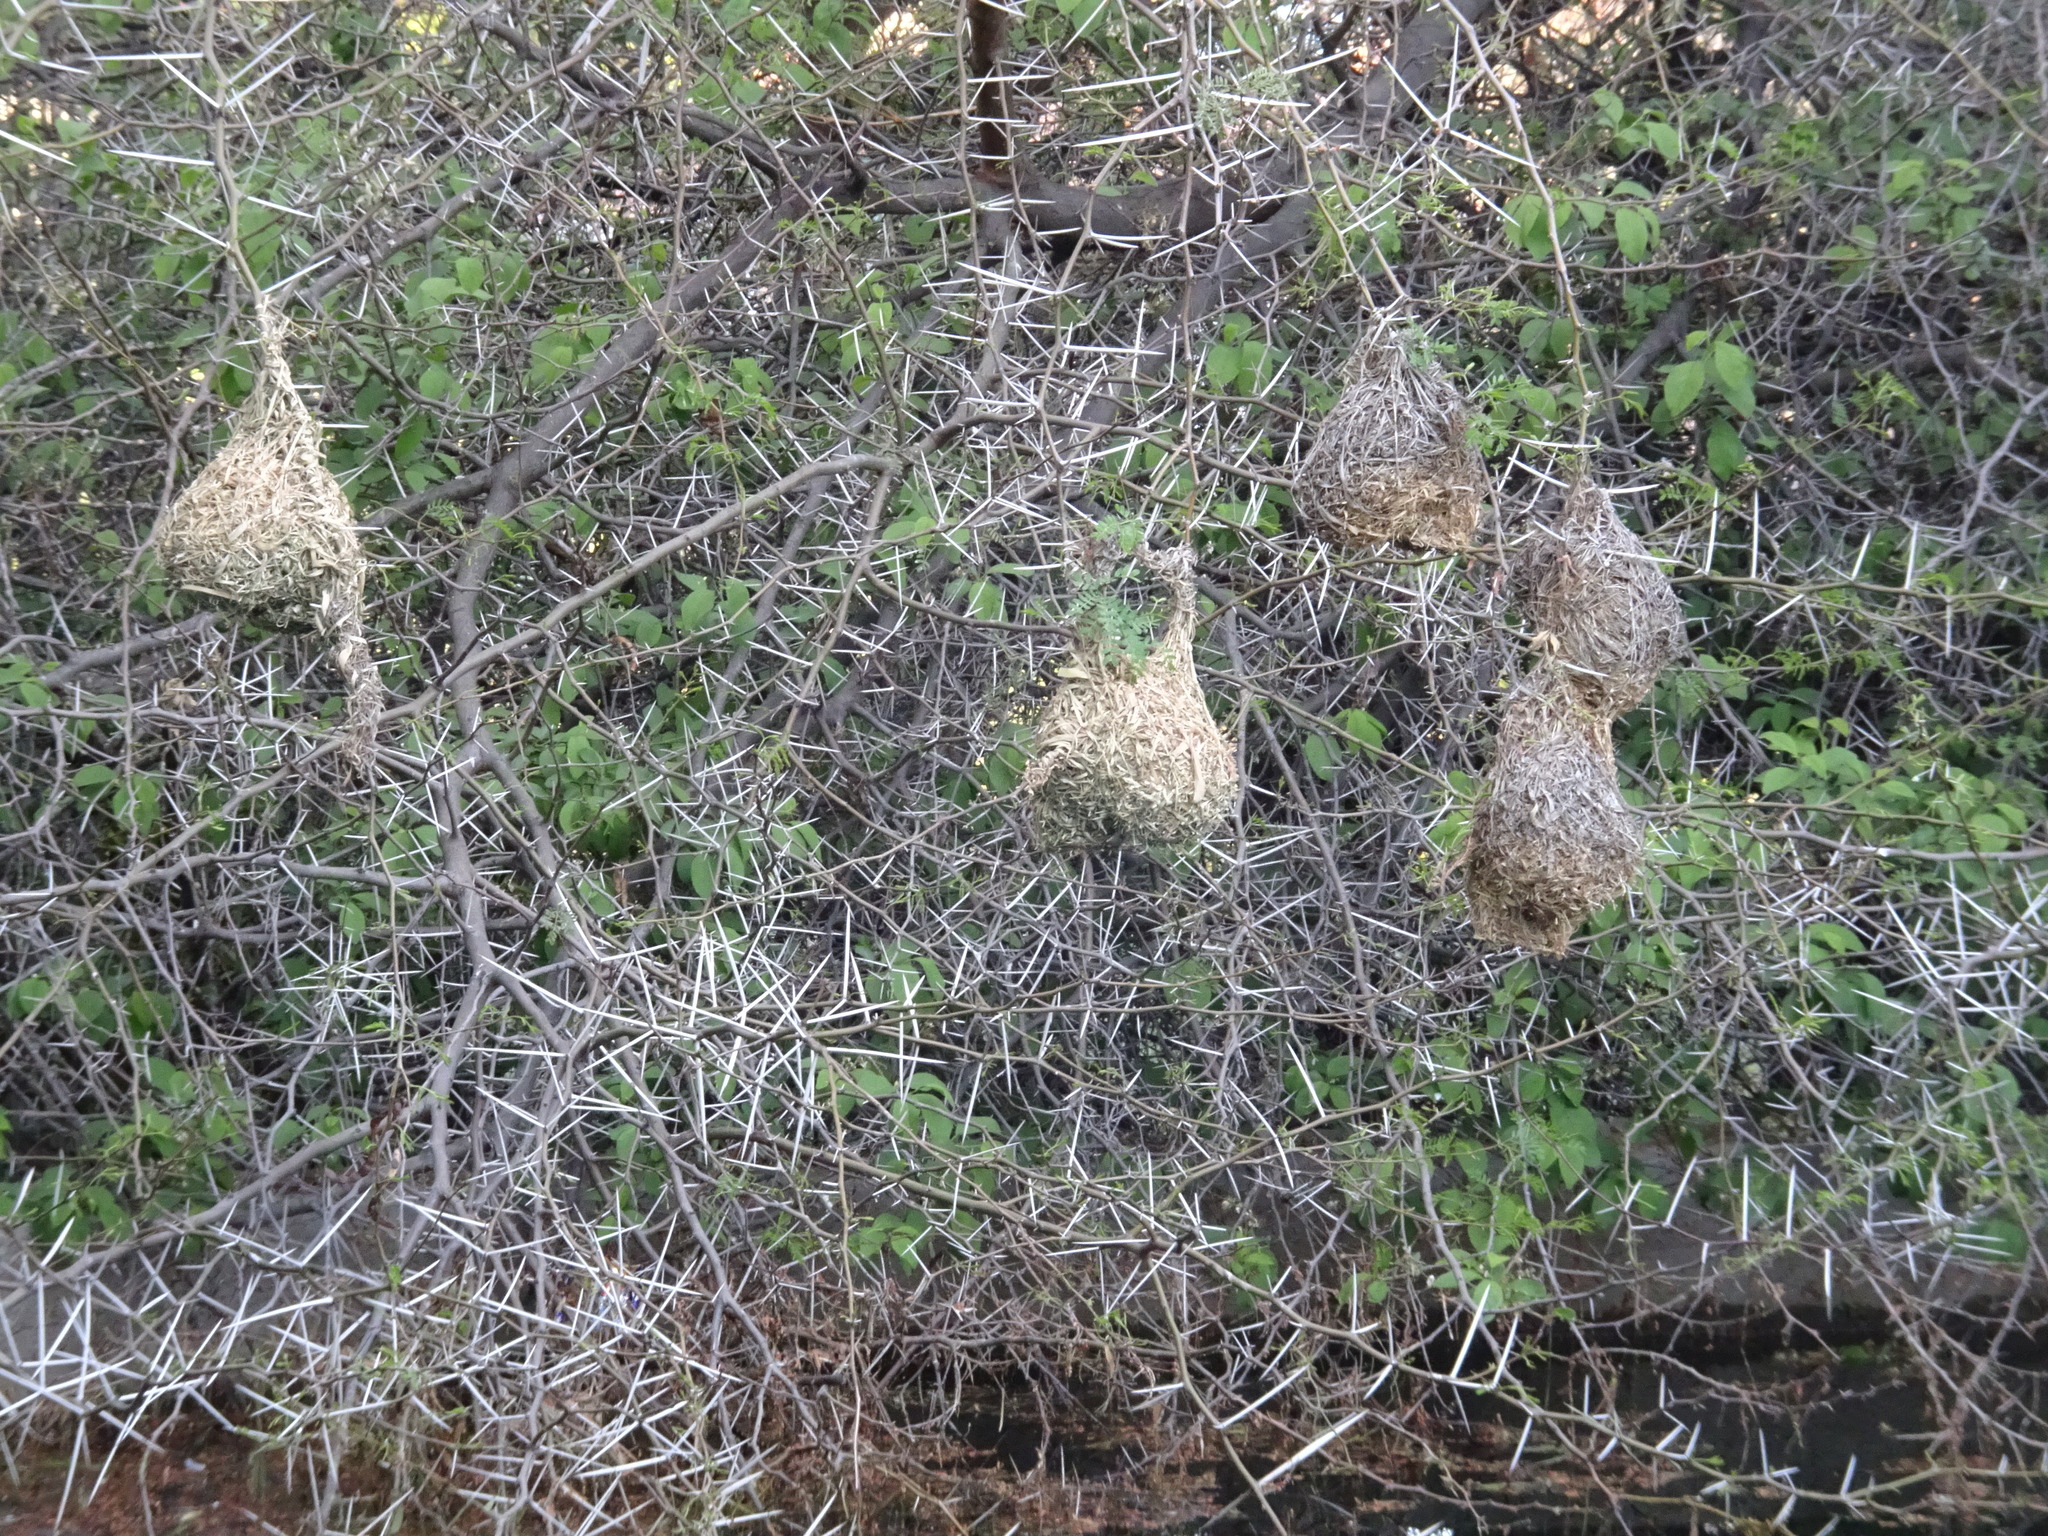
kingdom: Animalia
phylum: Chordata
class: Aves
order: Passeriformes
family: Ploceidae
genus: Ploceus
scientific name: Ploceus velatus
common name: Southern masked weaver
